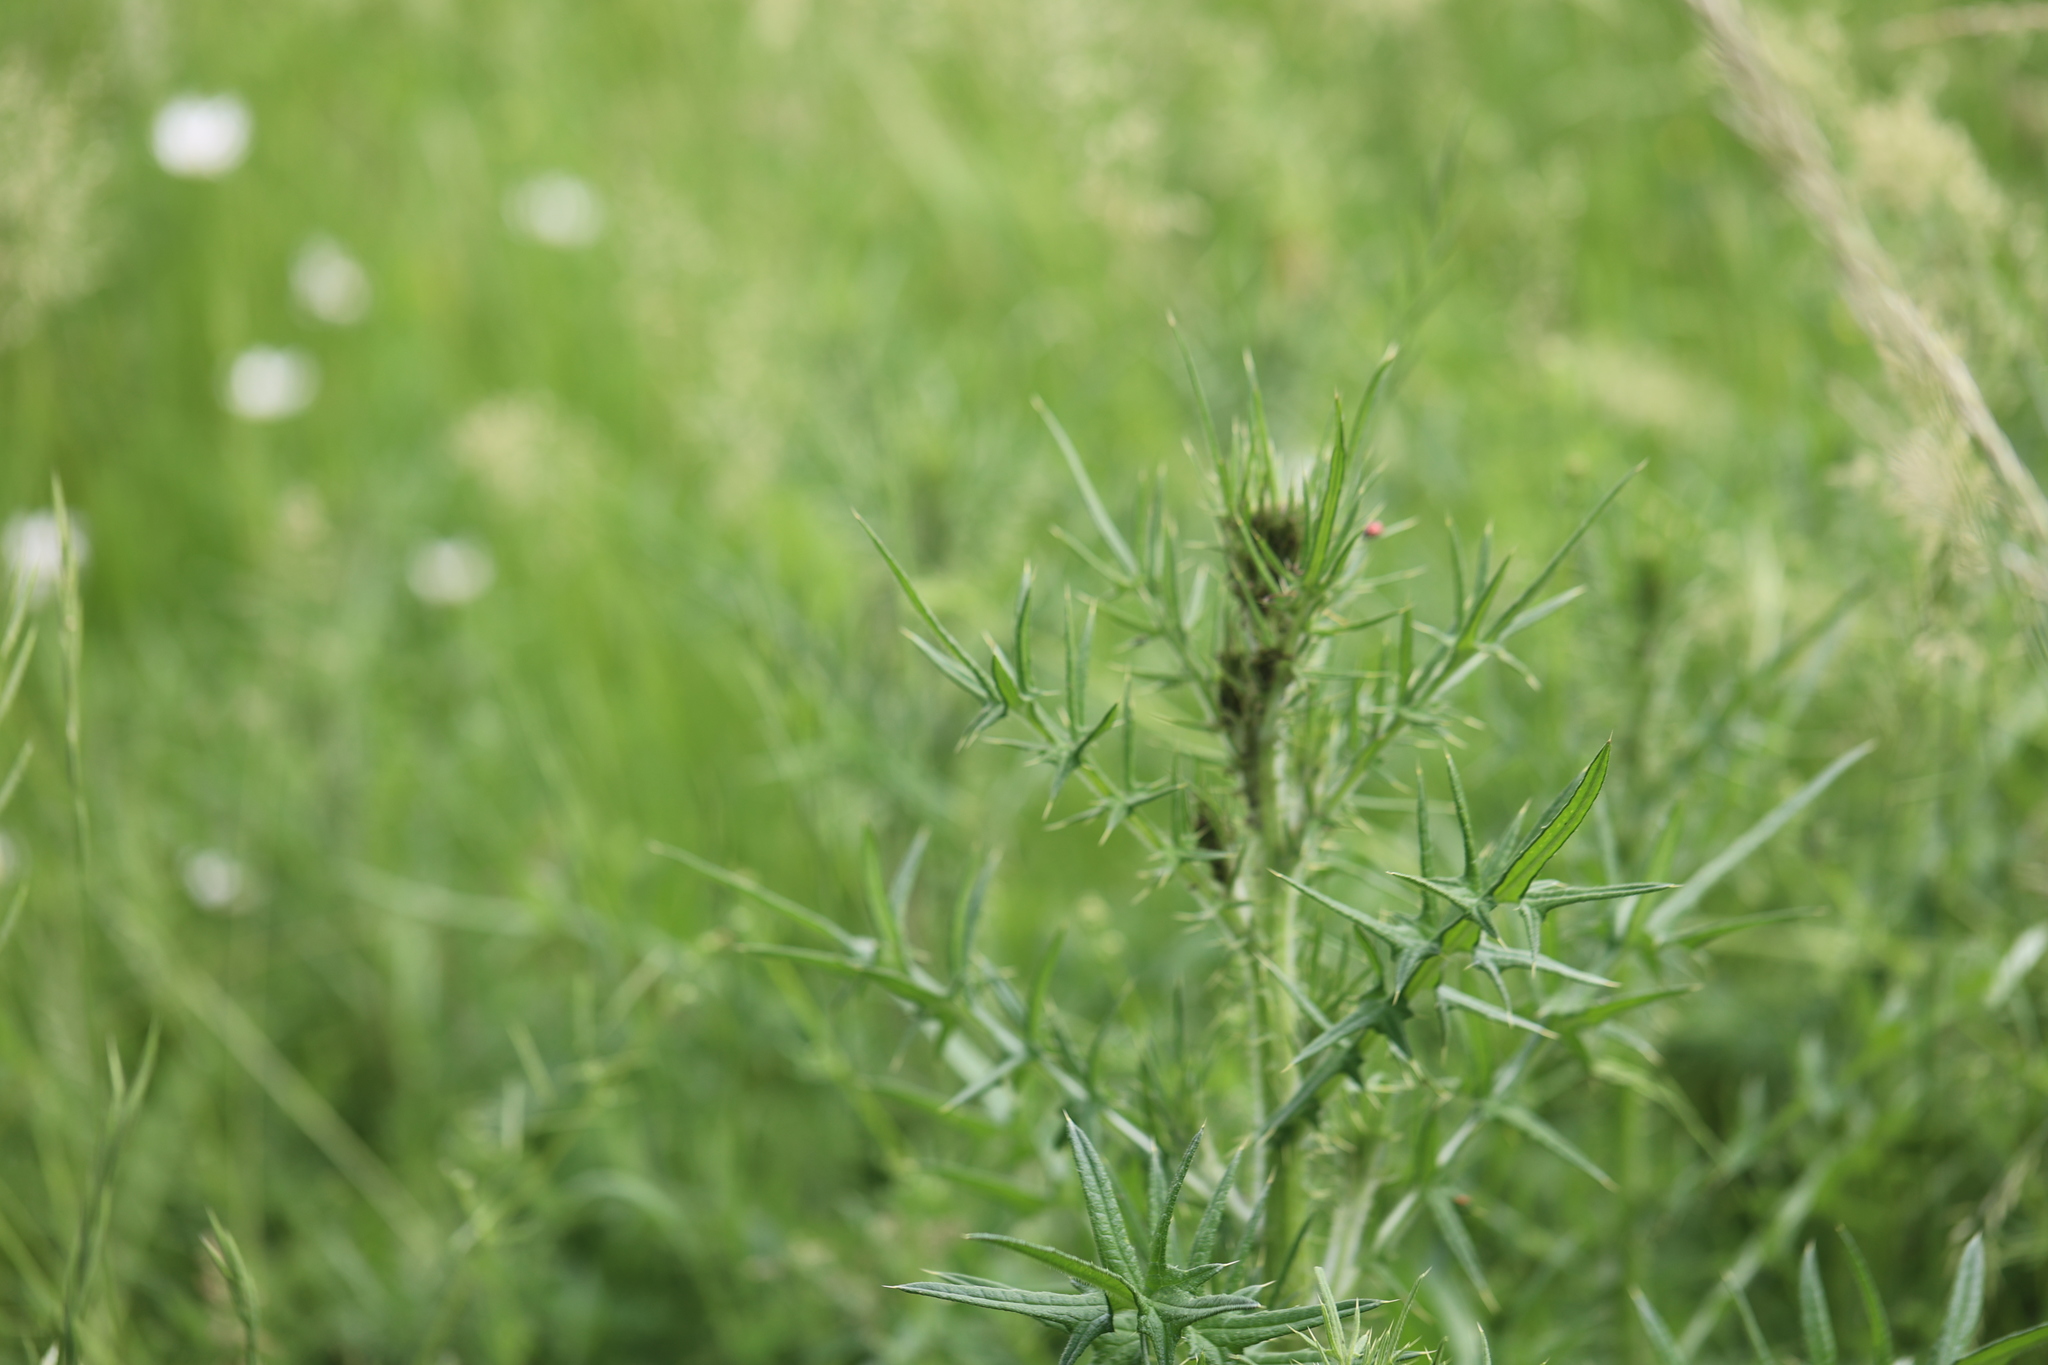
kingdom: Plantae
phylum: Tracheophyta
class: Magnoliopsida
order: Asterales
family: Asteraceae
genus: Cirsium
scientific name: Cirsium vulgare
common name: Bull thistle
